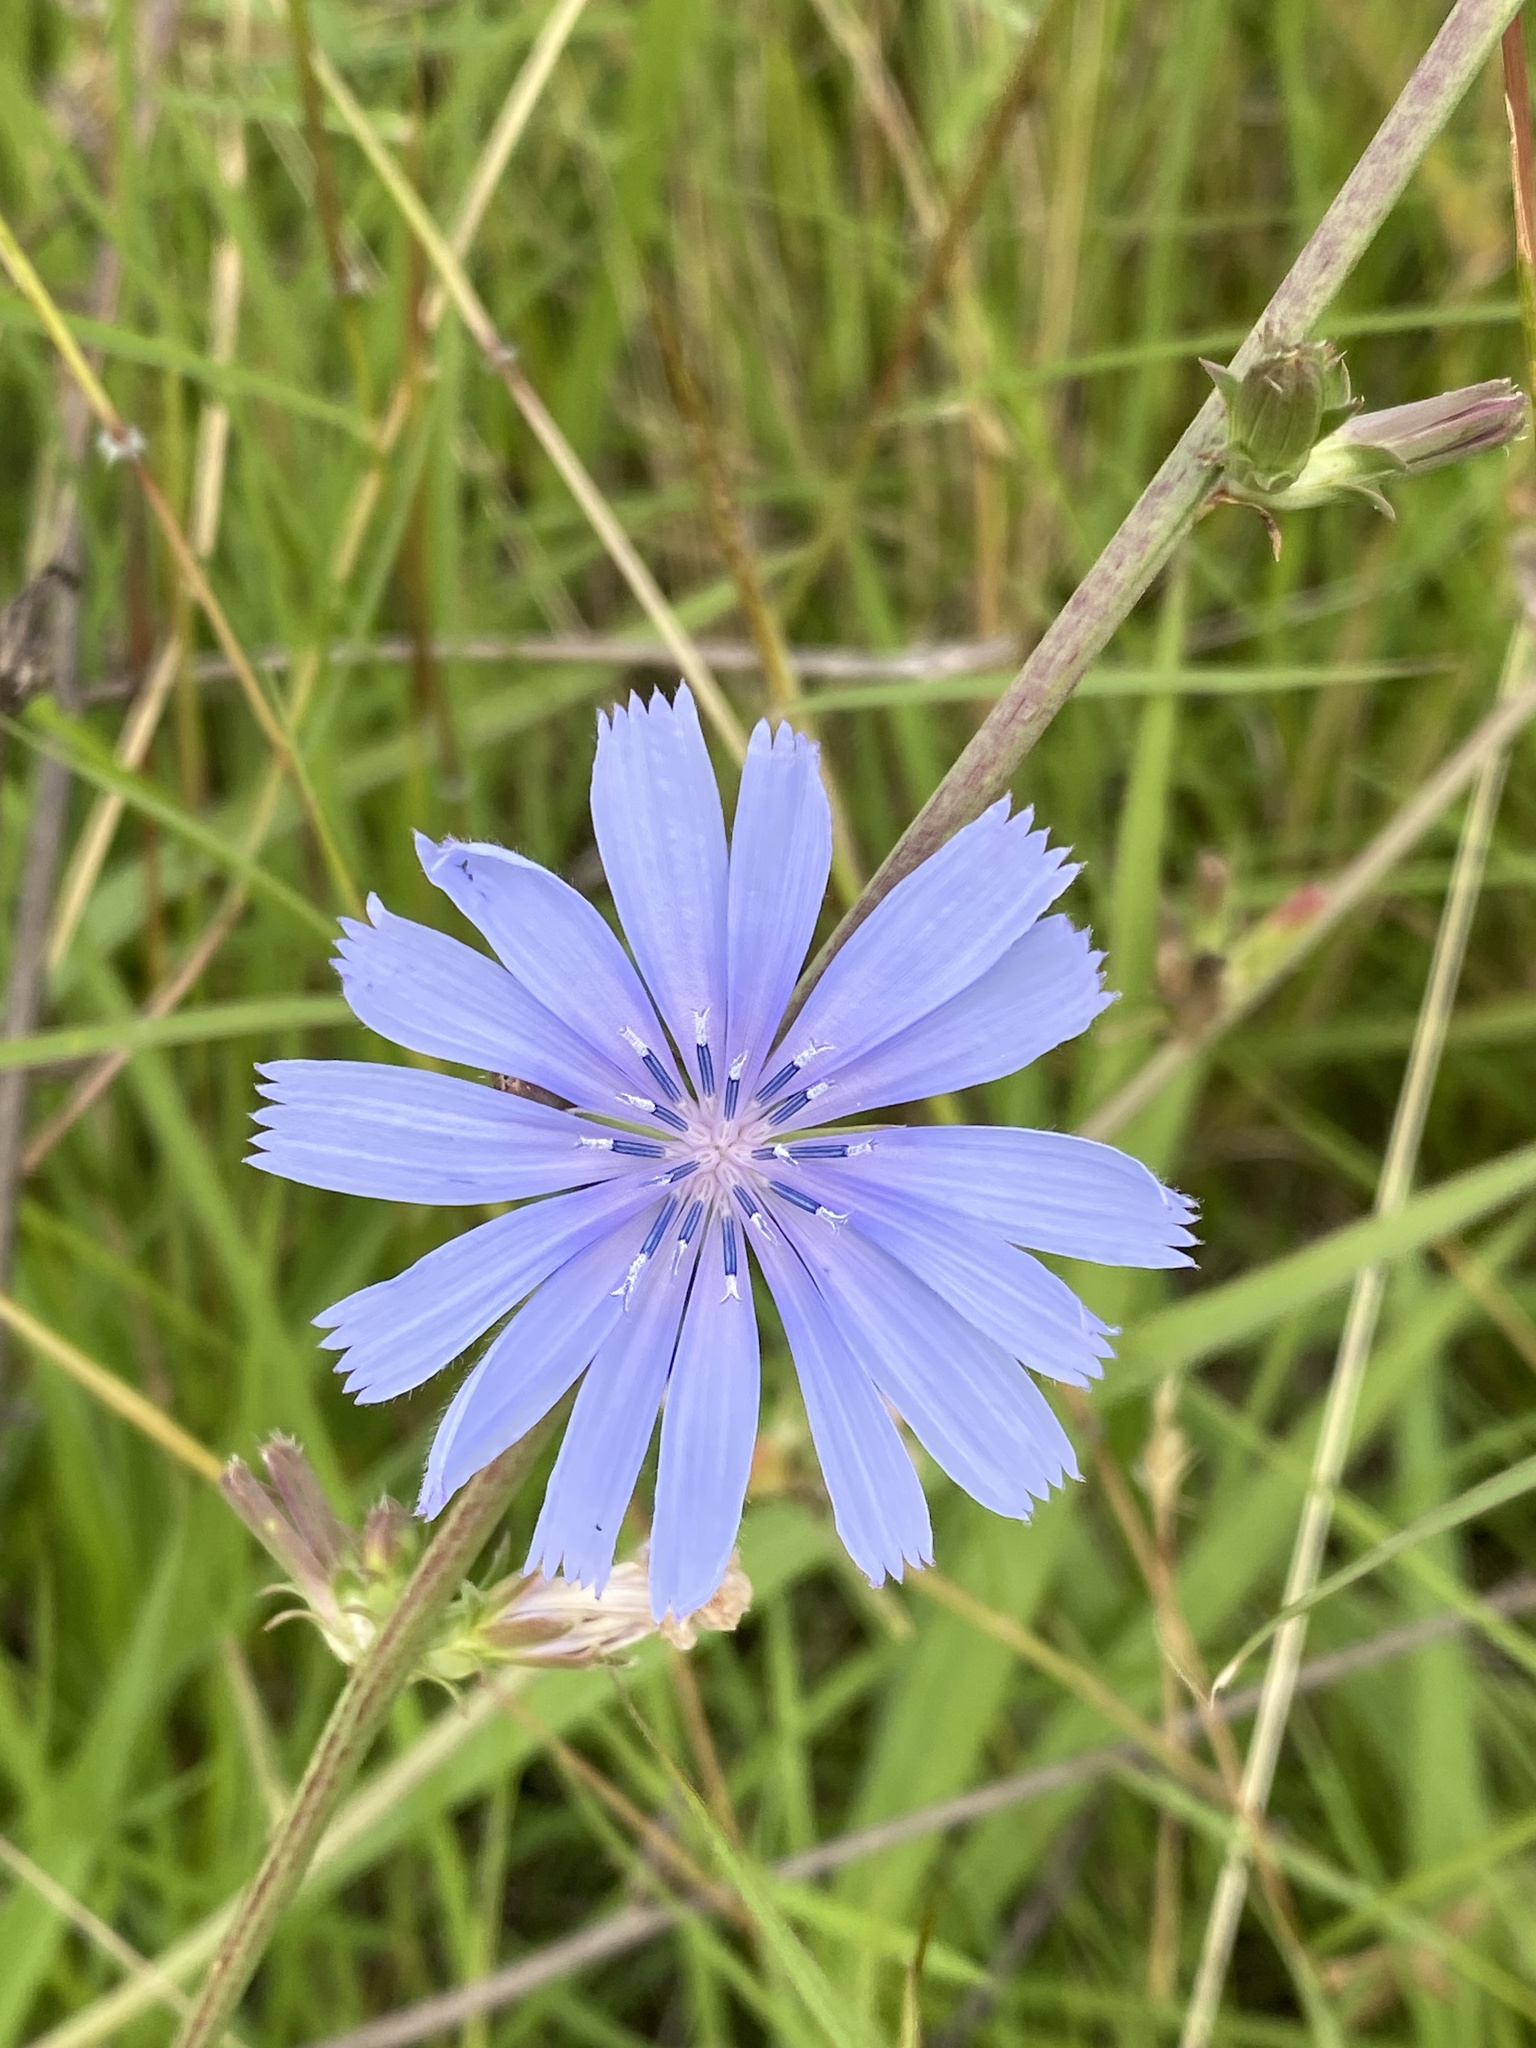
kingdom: Plantae
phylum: Tracheophyta
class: Magnoliopsida
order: Asterales
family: Asteraceae
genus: Cichorium
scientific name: Cichorium intybus
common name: Chicory
